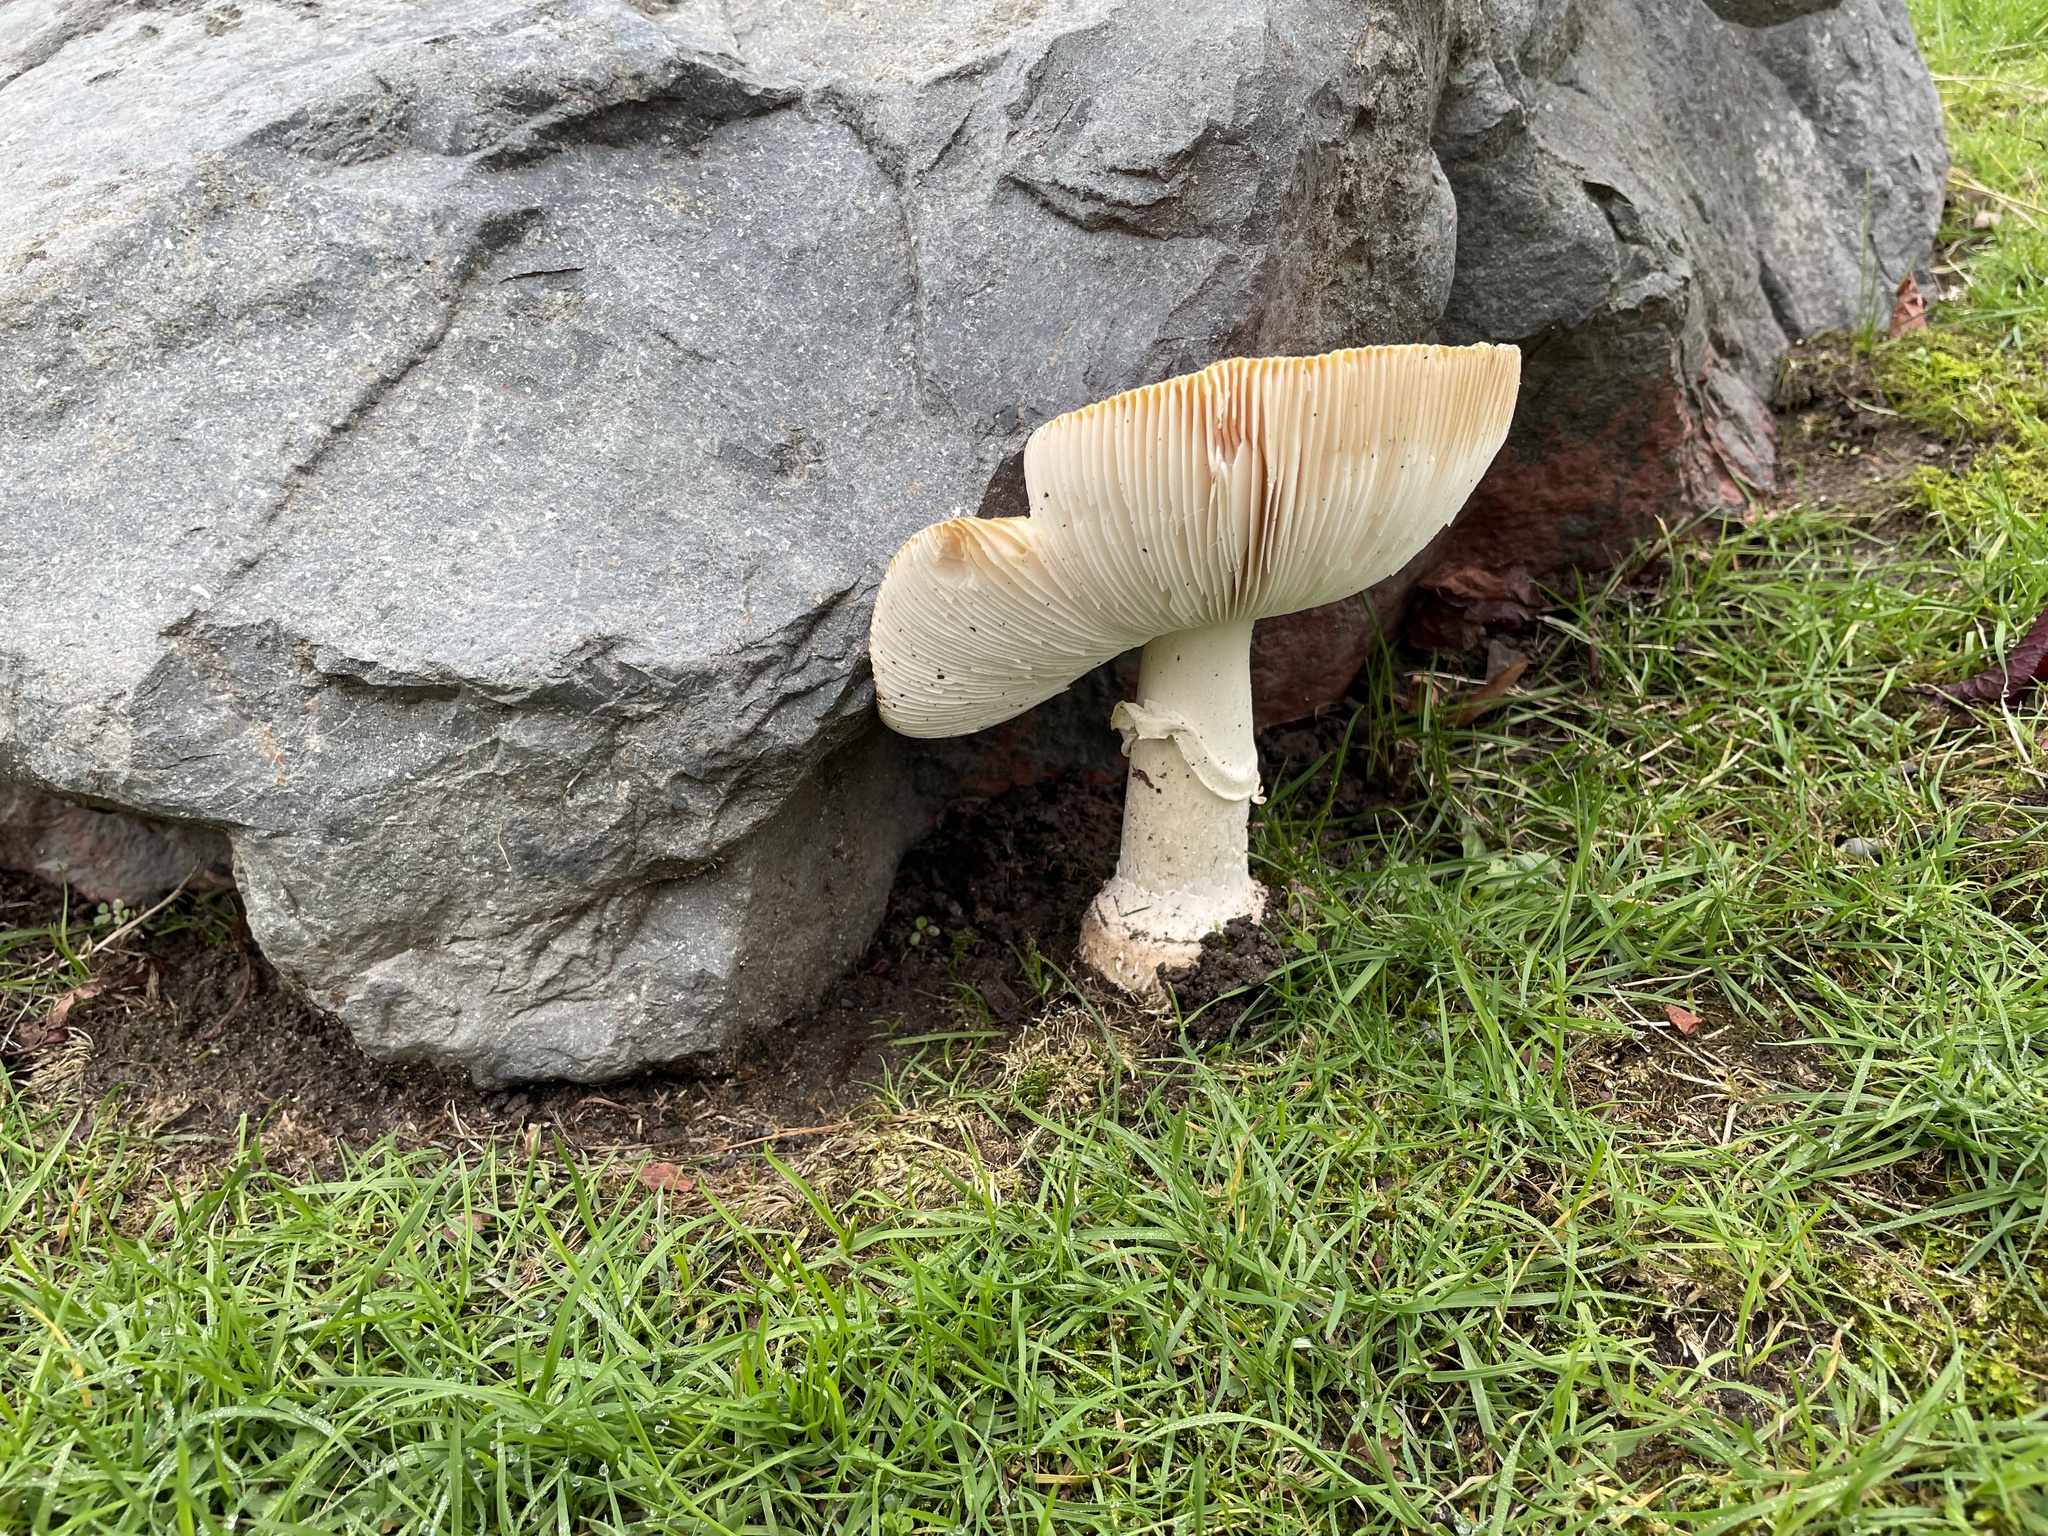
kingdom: Fungi
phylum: Basidiomycota
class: Agaricomycetes
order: Agaricales
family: Amanitaceae
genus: Amanita
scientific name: Amanita muscaria
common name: Fly agaric
